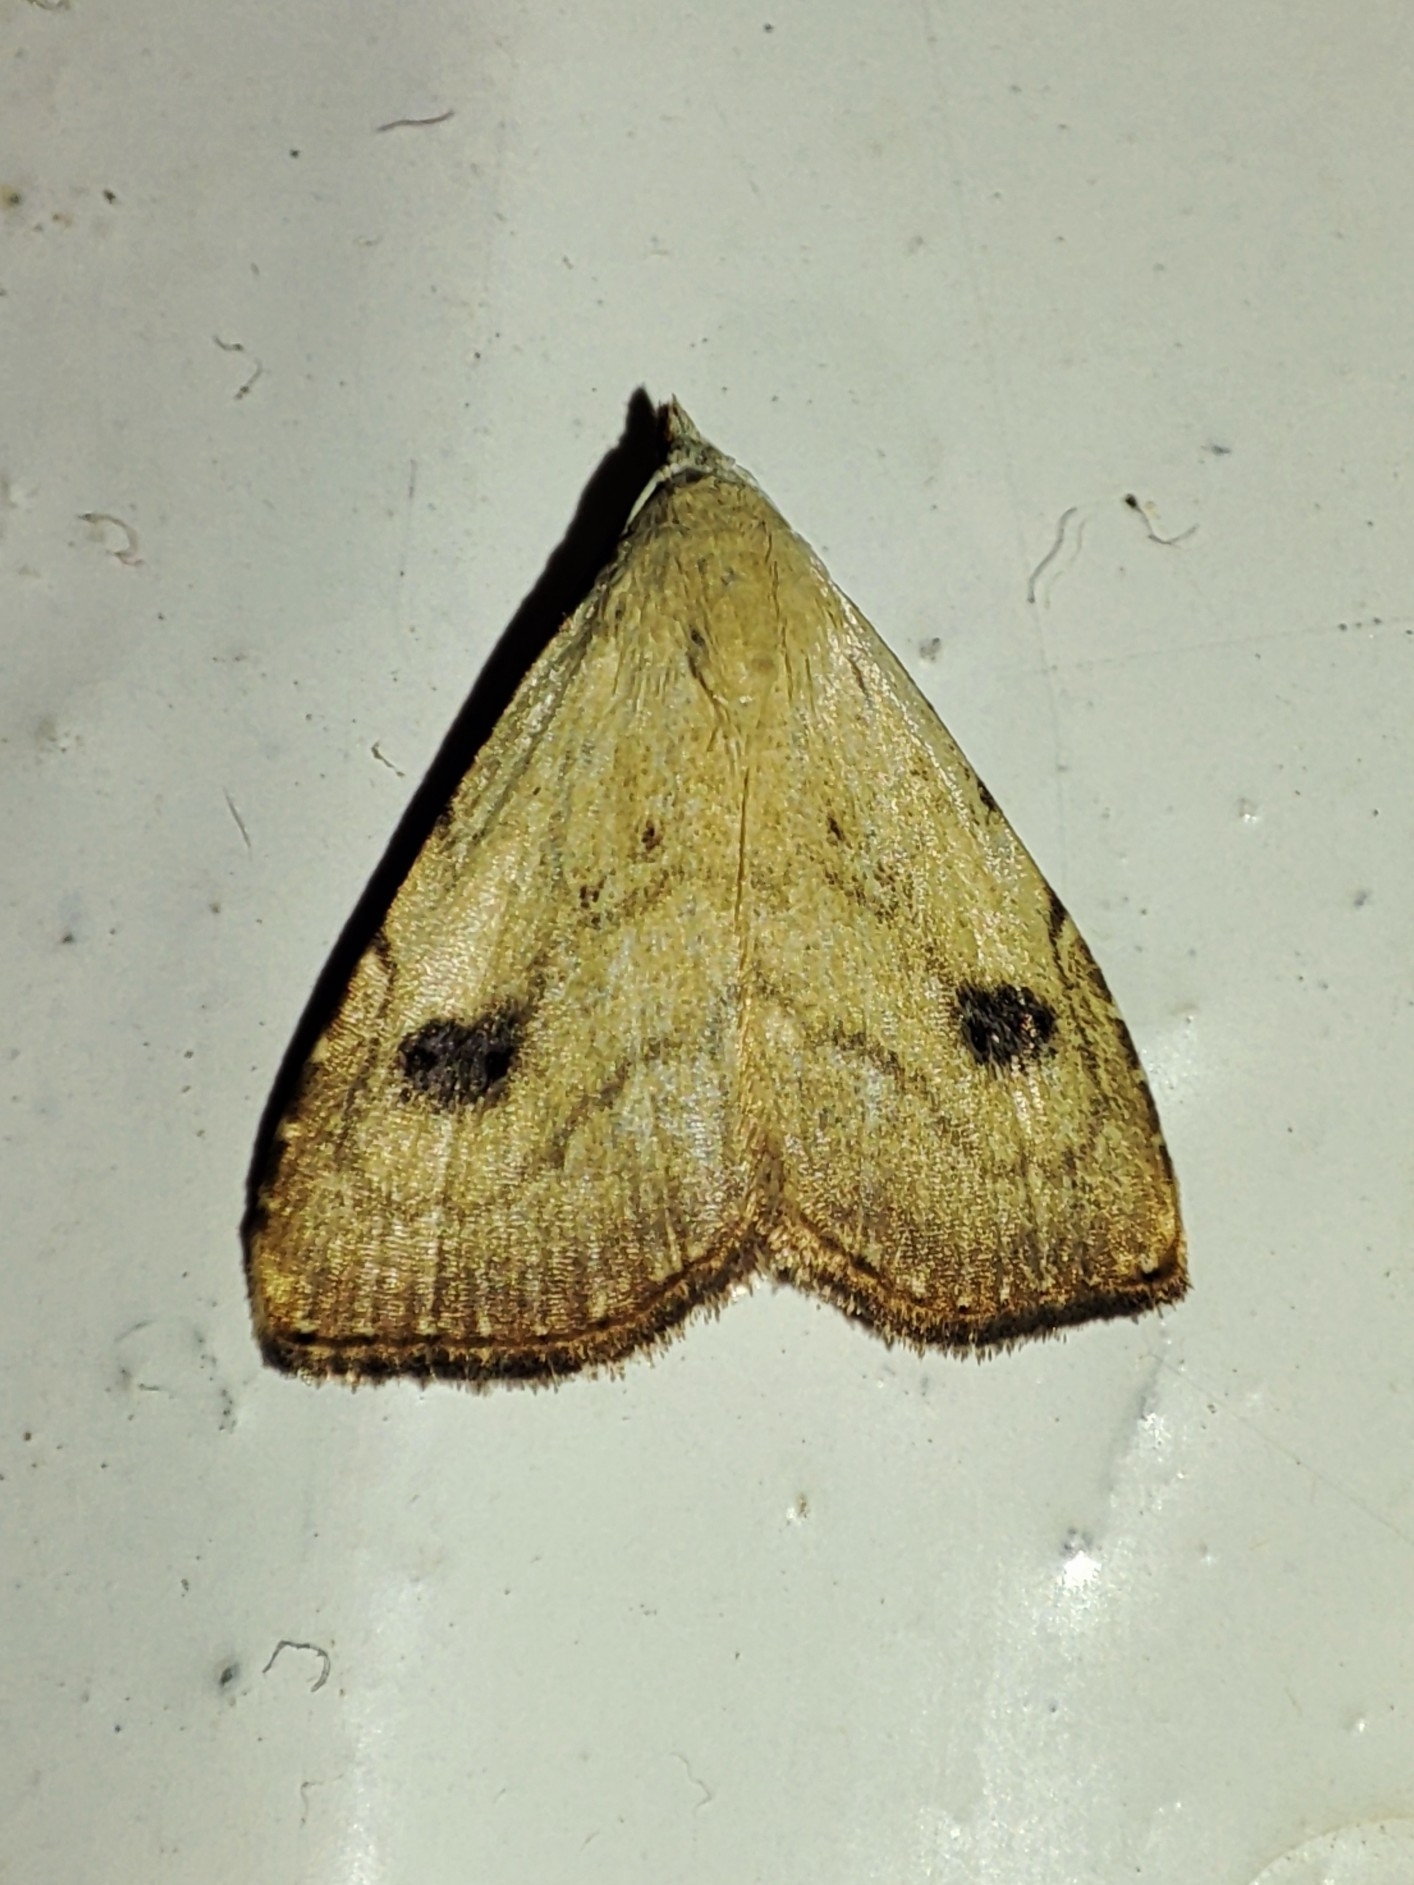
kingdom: Animalia
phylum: Arthropoda
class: Insecta
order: Lepidoptera
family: Erebidae
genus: Rivula
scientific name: Rivula sericealis
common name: Straw dot
